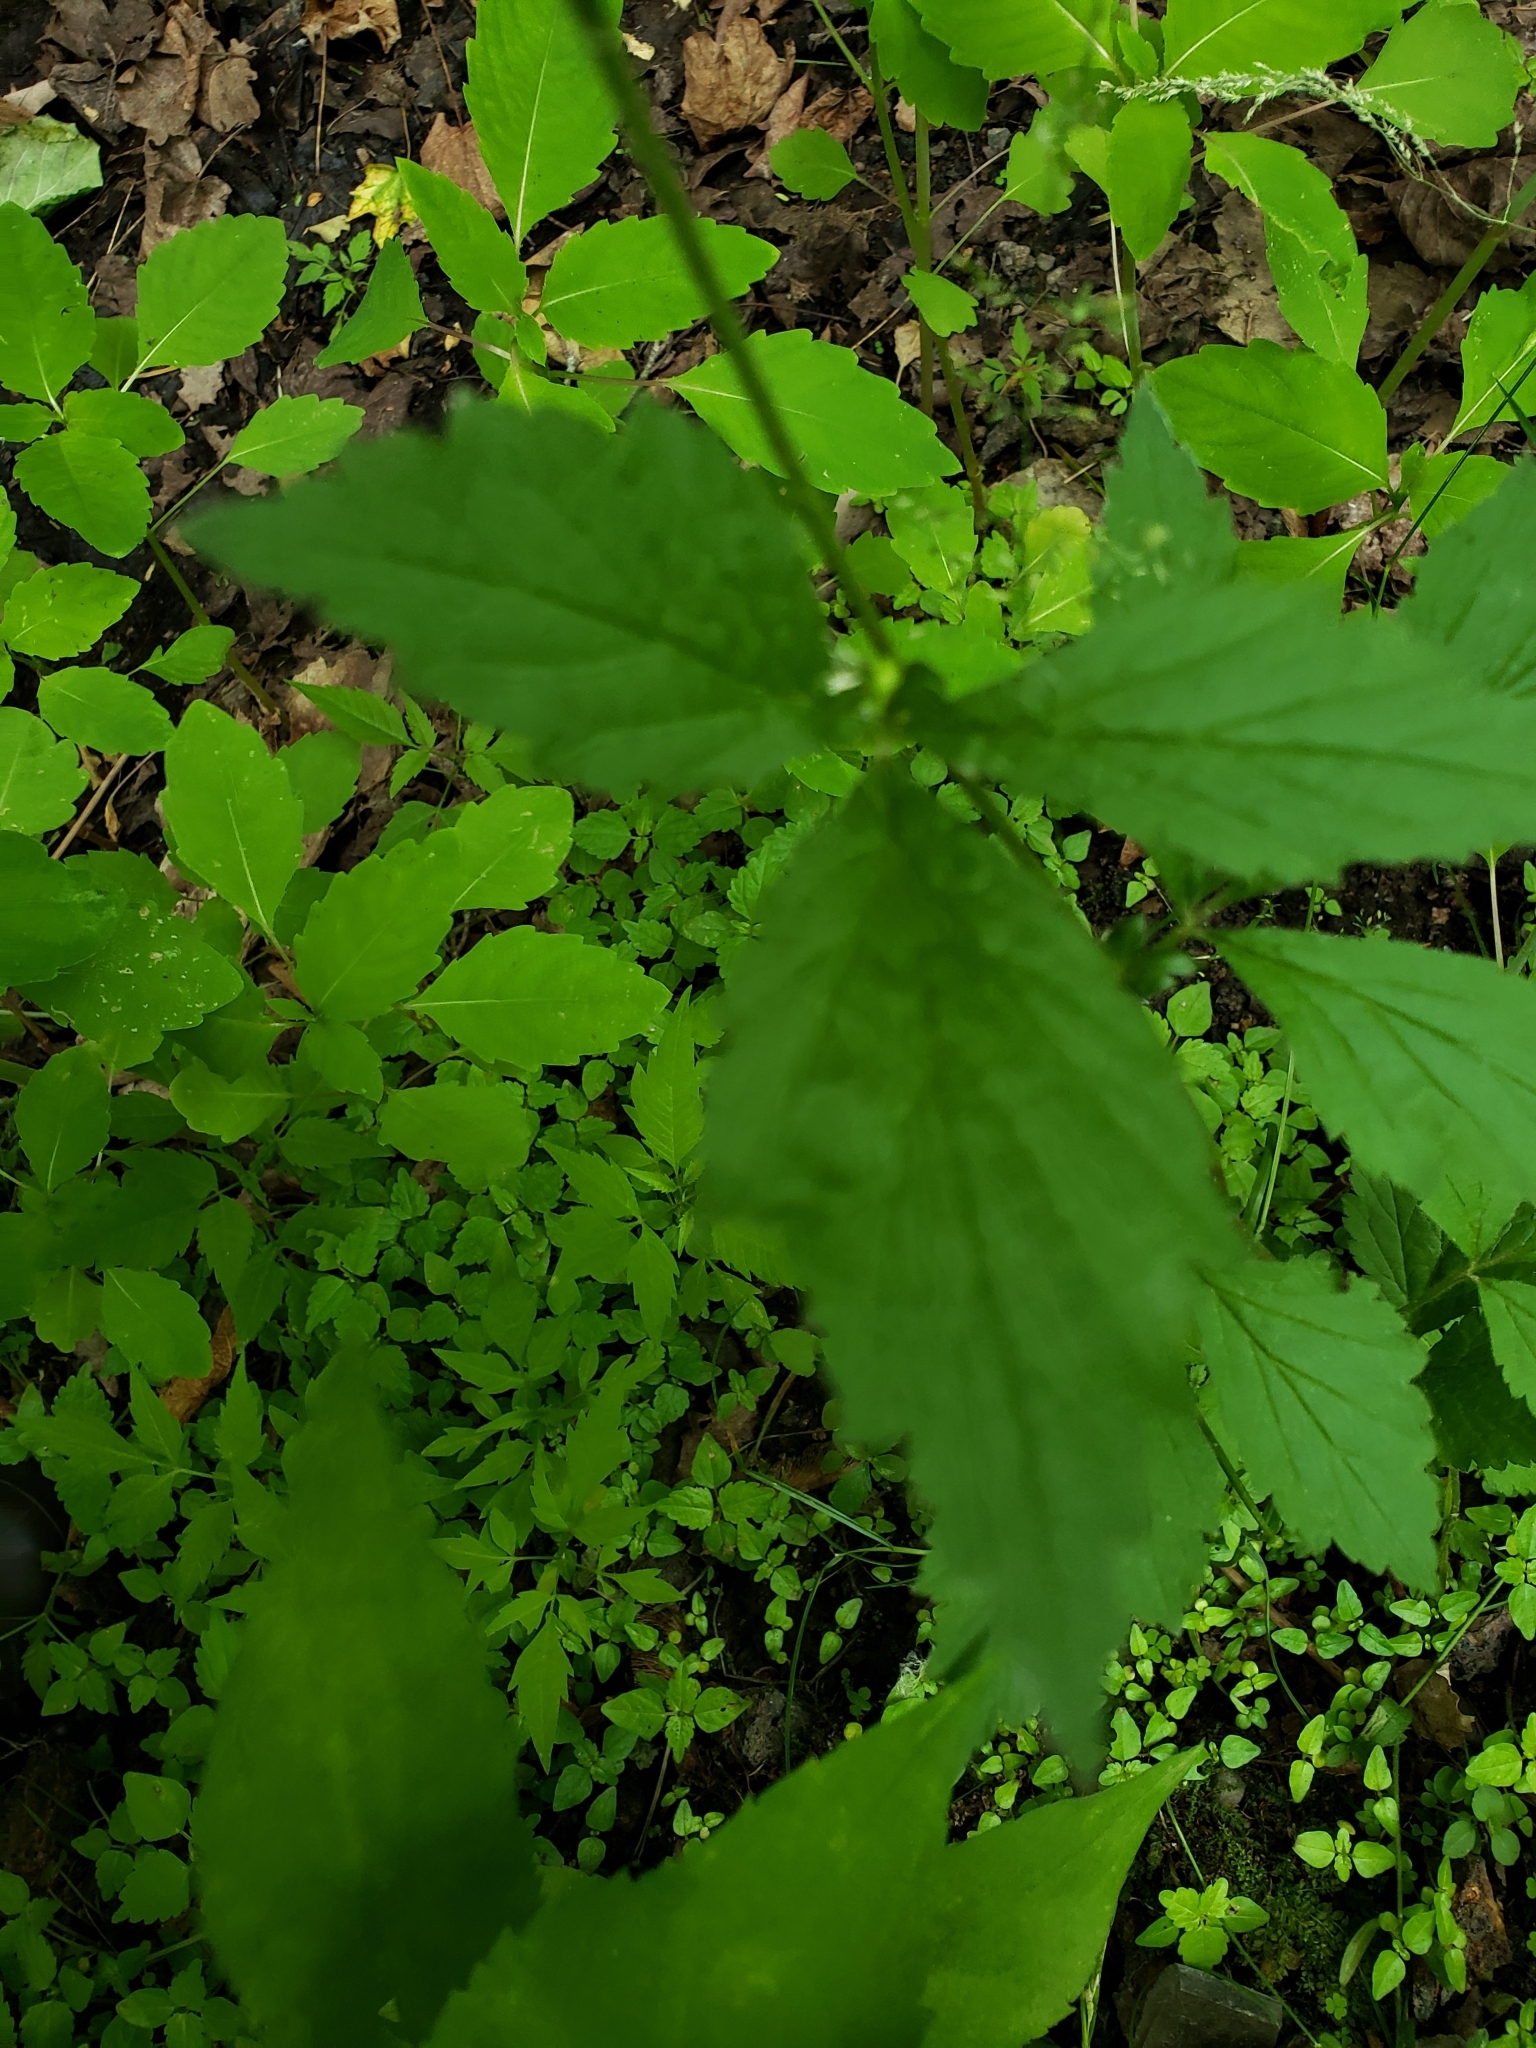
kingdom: Plantae
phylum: Tracheophyta
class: Magnoliopsida
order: Rosales
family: Rosaceae
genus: Geum
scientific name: Geum canadense
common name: White avens
